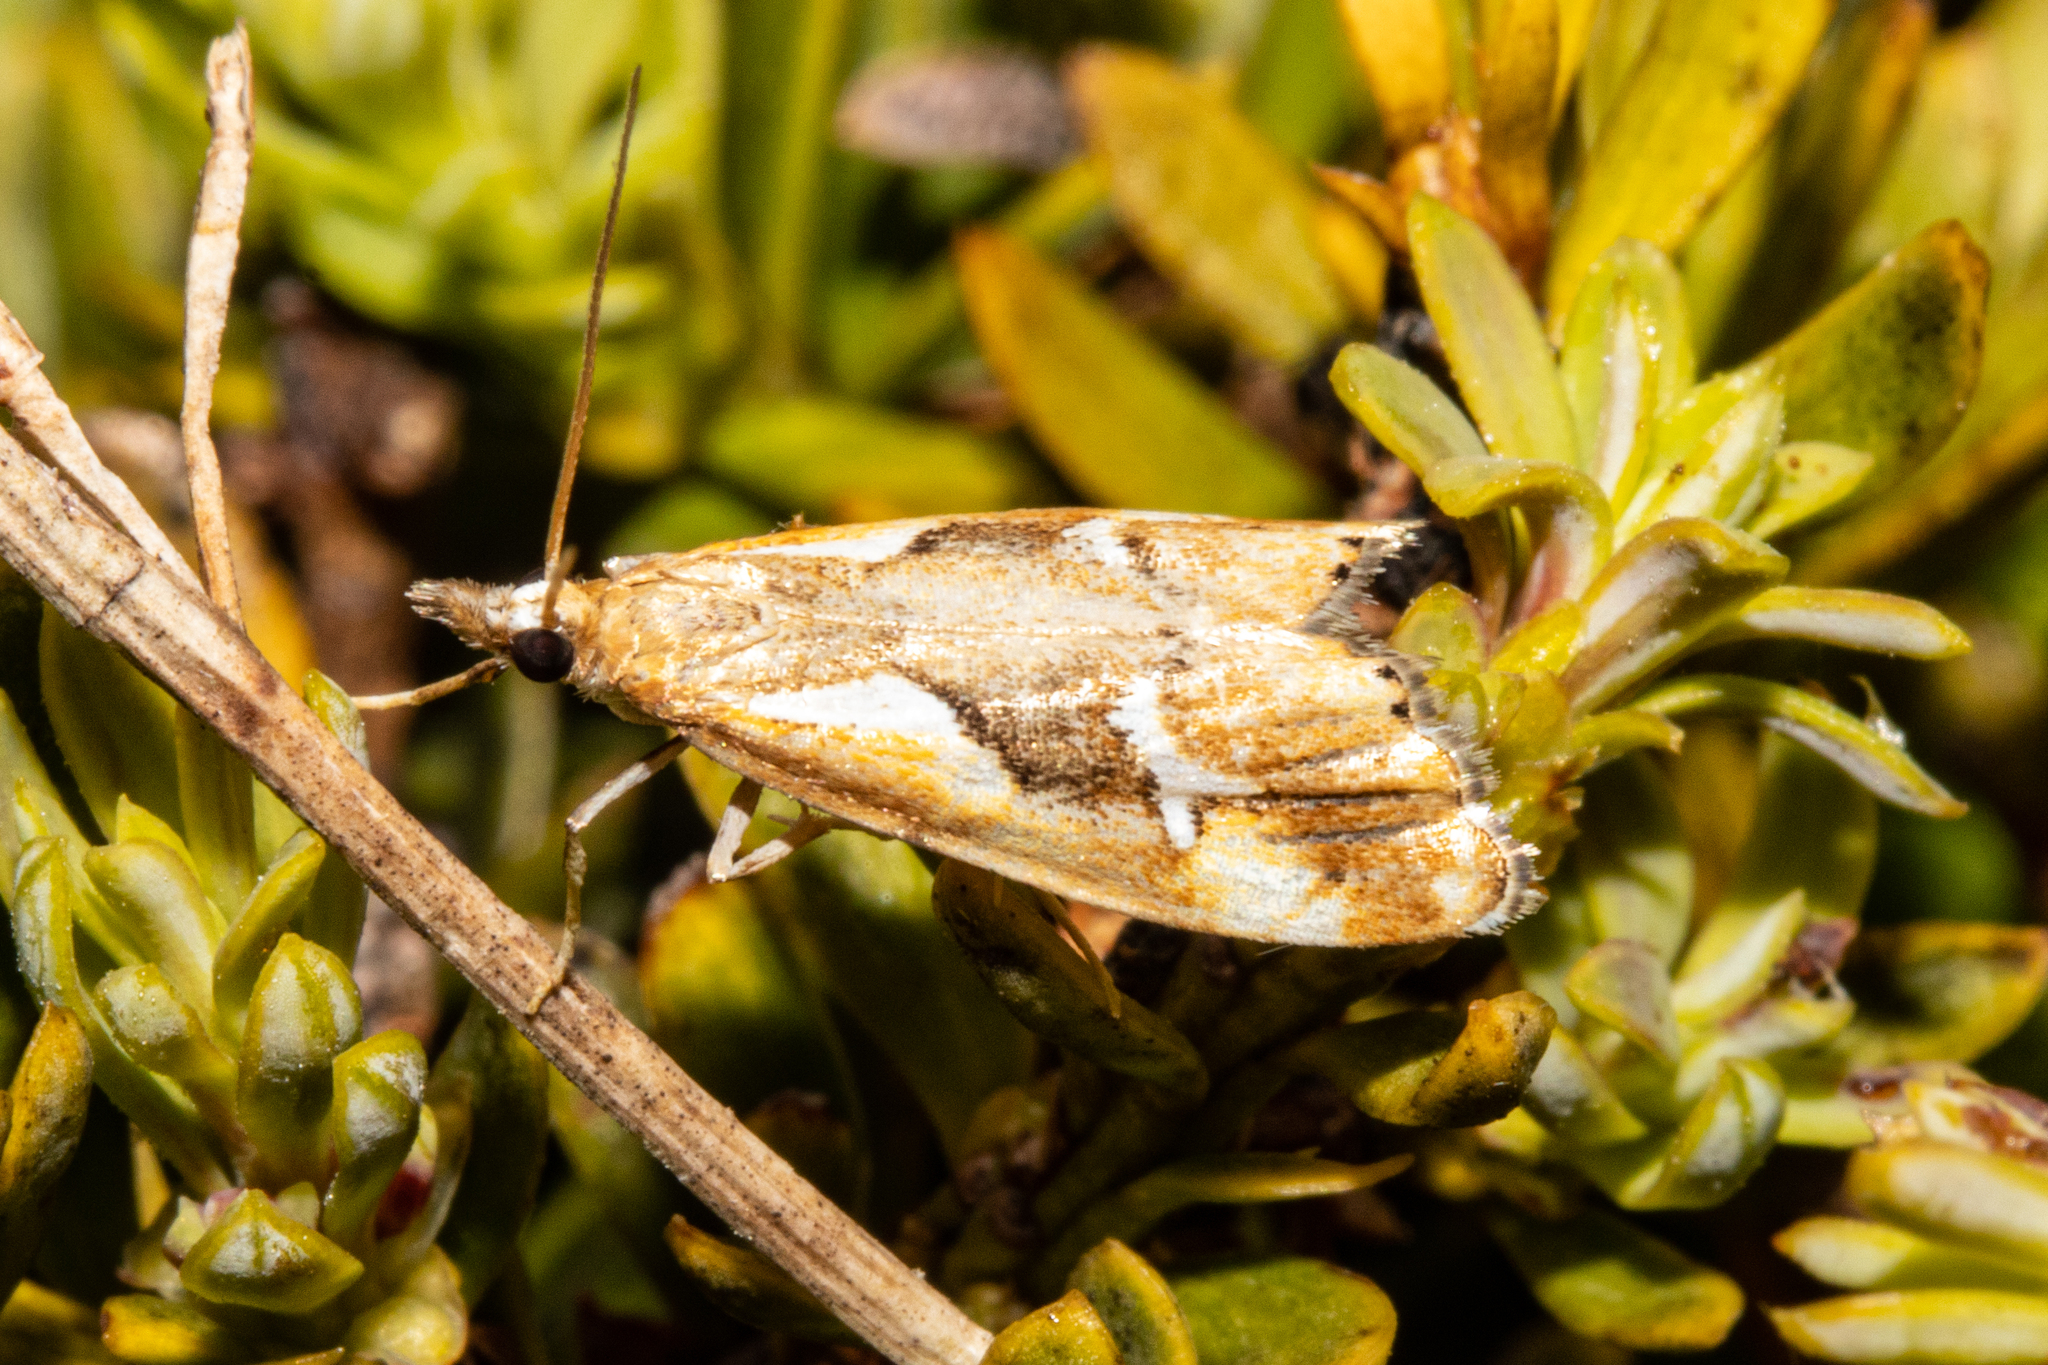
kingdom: Animalia
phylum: Arthropoda
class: Insecta
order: Lepidoptera
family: Crambidae
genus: Glaucocharis
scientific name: Glaucocharis interruptus
